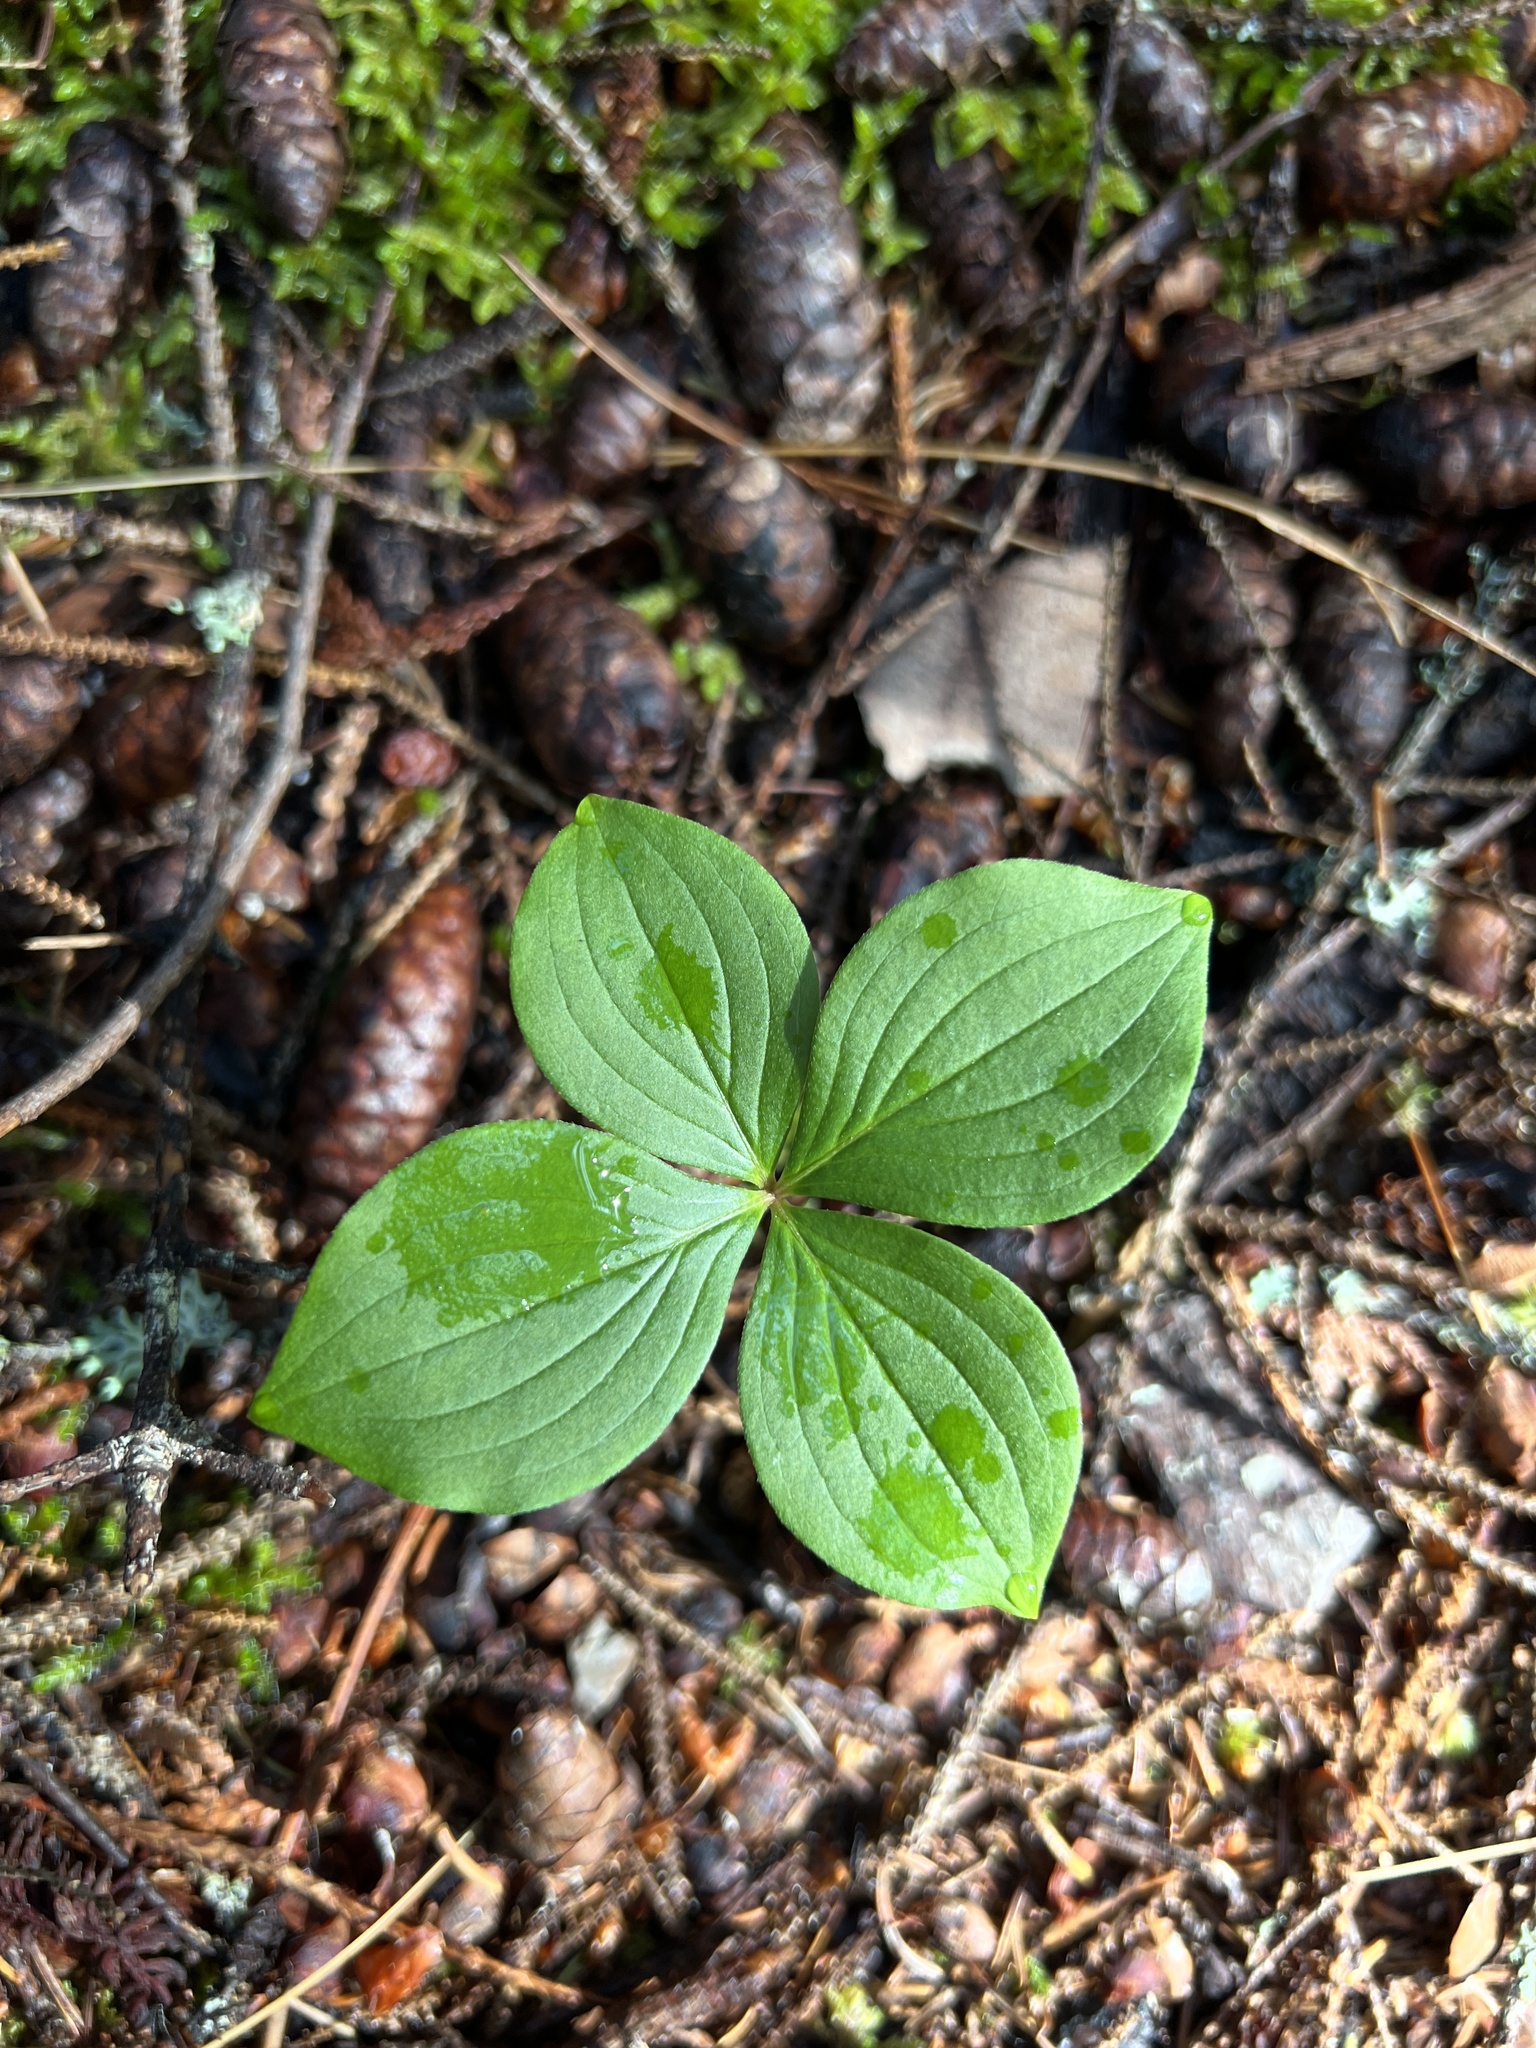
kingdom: Plantae
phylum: Tracheophyta
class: Magnoliopsida
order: Cornales
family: Cornaceae
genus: Cornus
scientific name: Cornus canadensis
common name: Creeping dogwood
